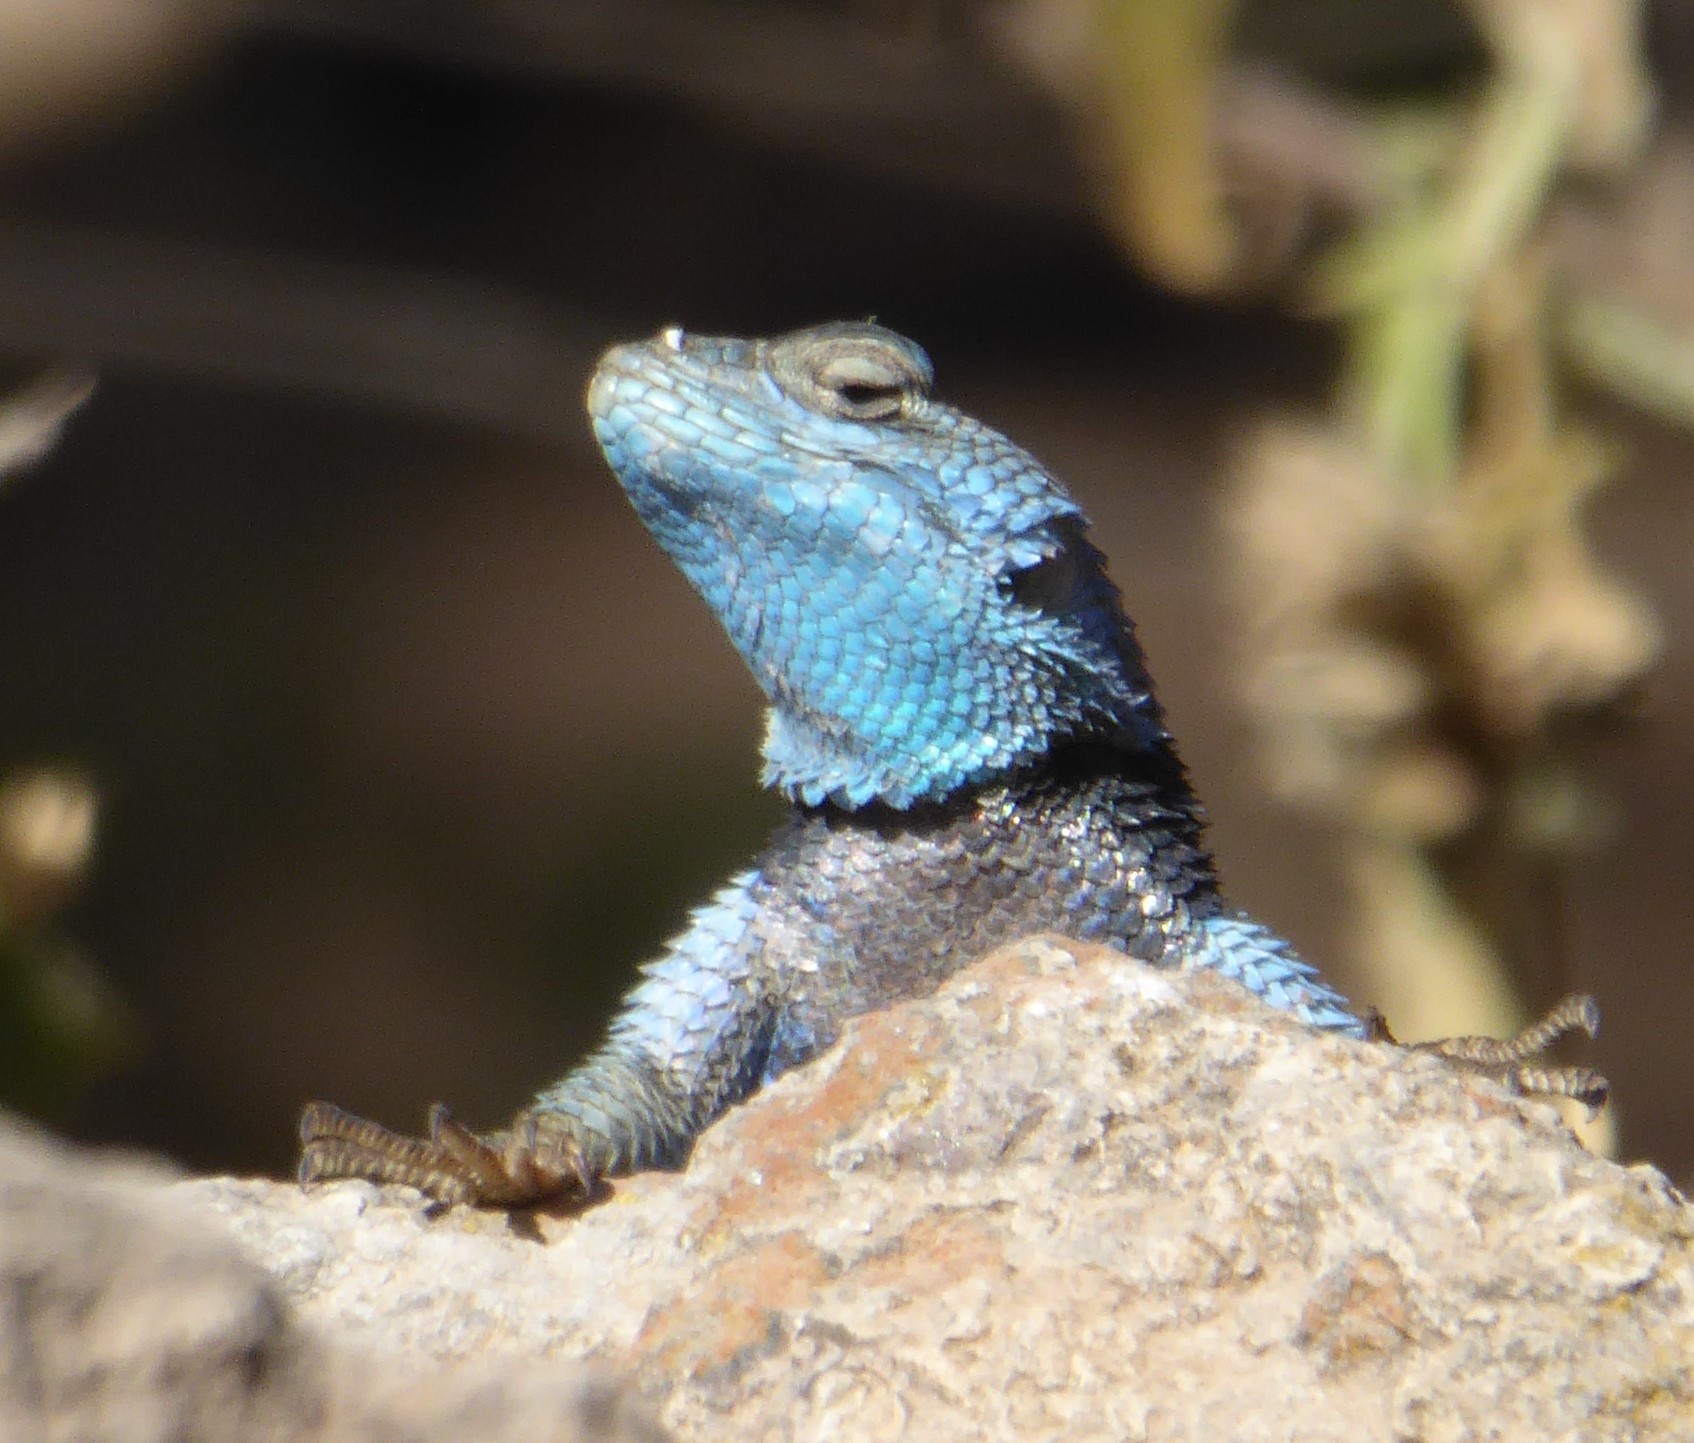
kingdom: Animalia
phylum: Chordata
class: Squamata
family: Phrynosomatidae
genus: Sceloporus
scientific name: Sceloporus minor
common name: Minor lizard
